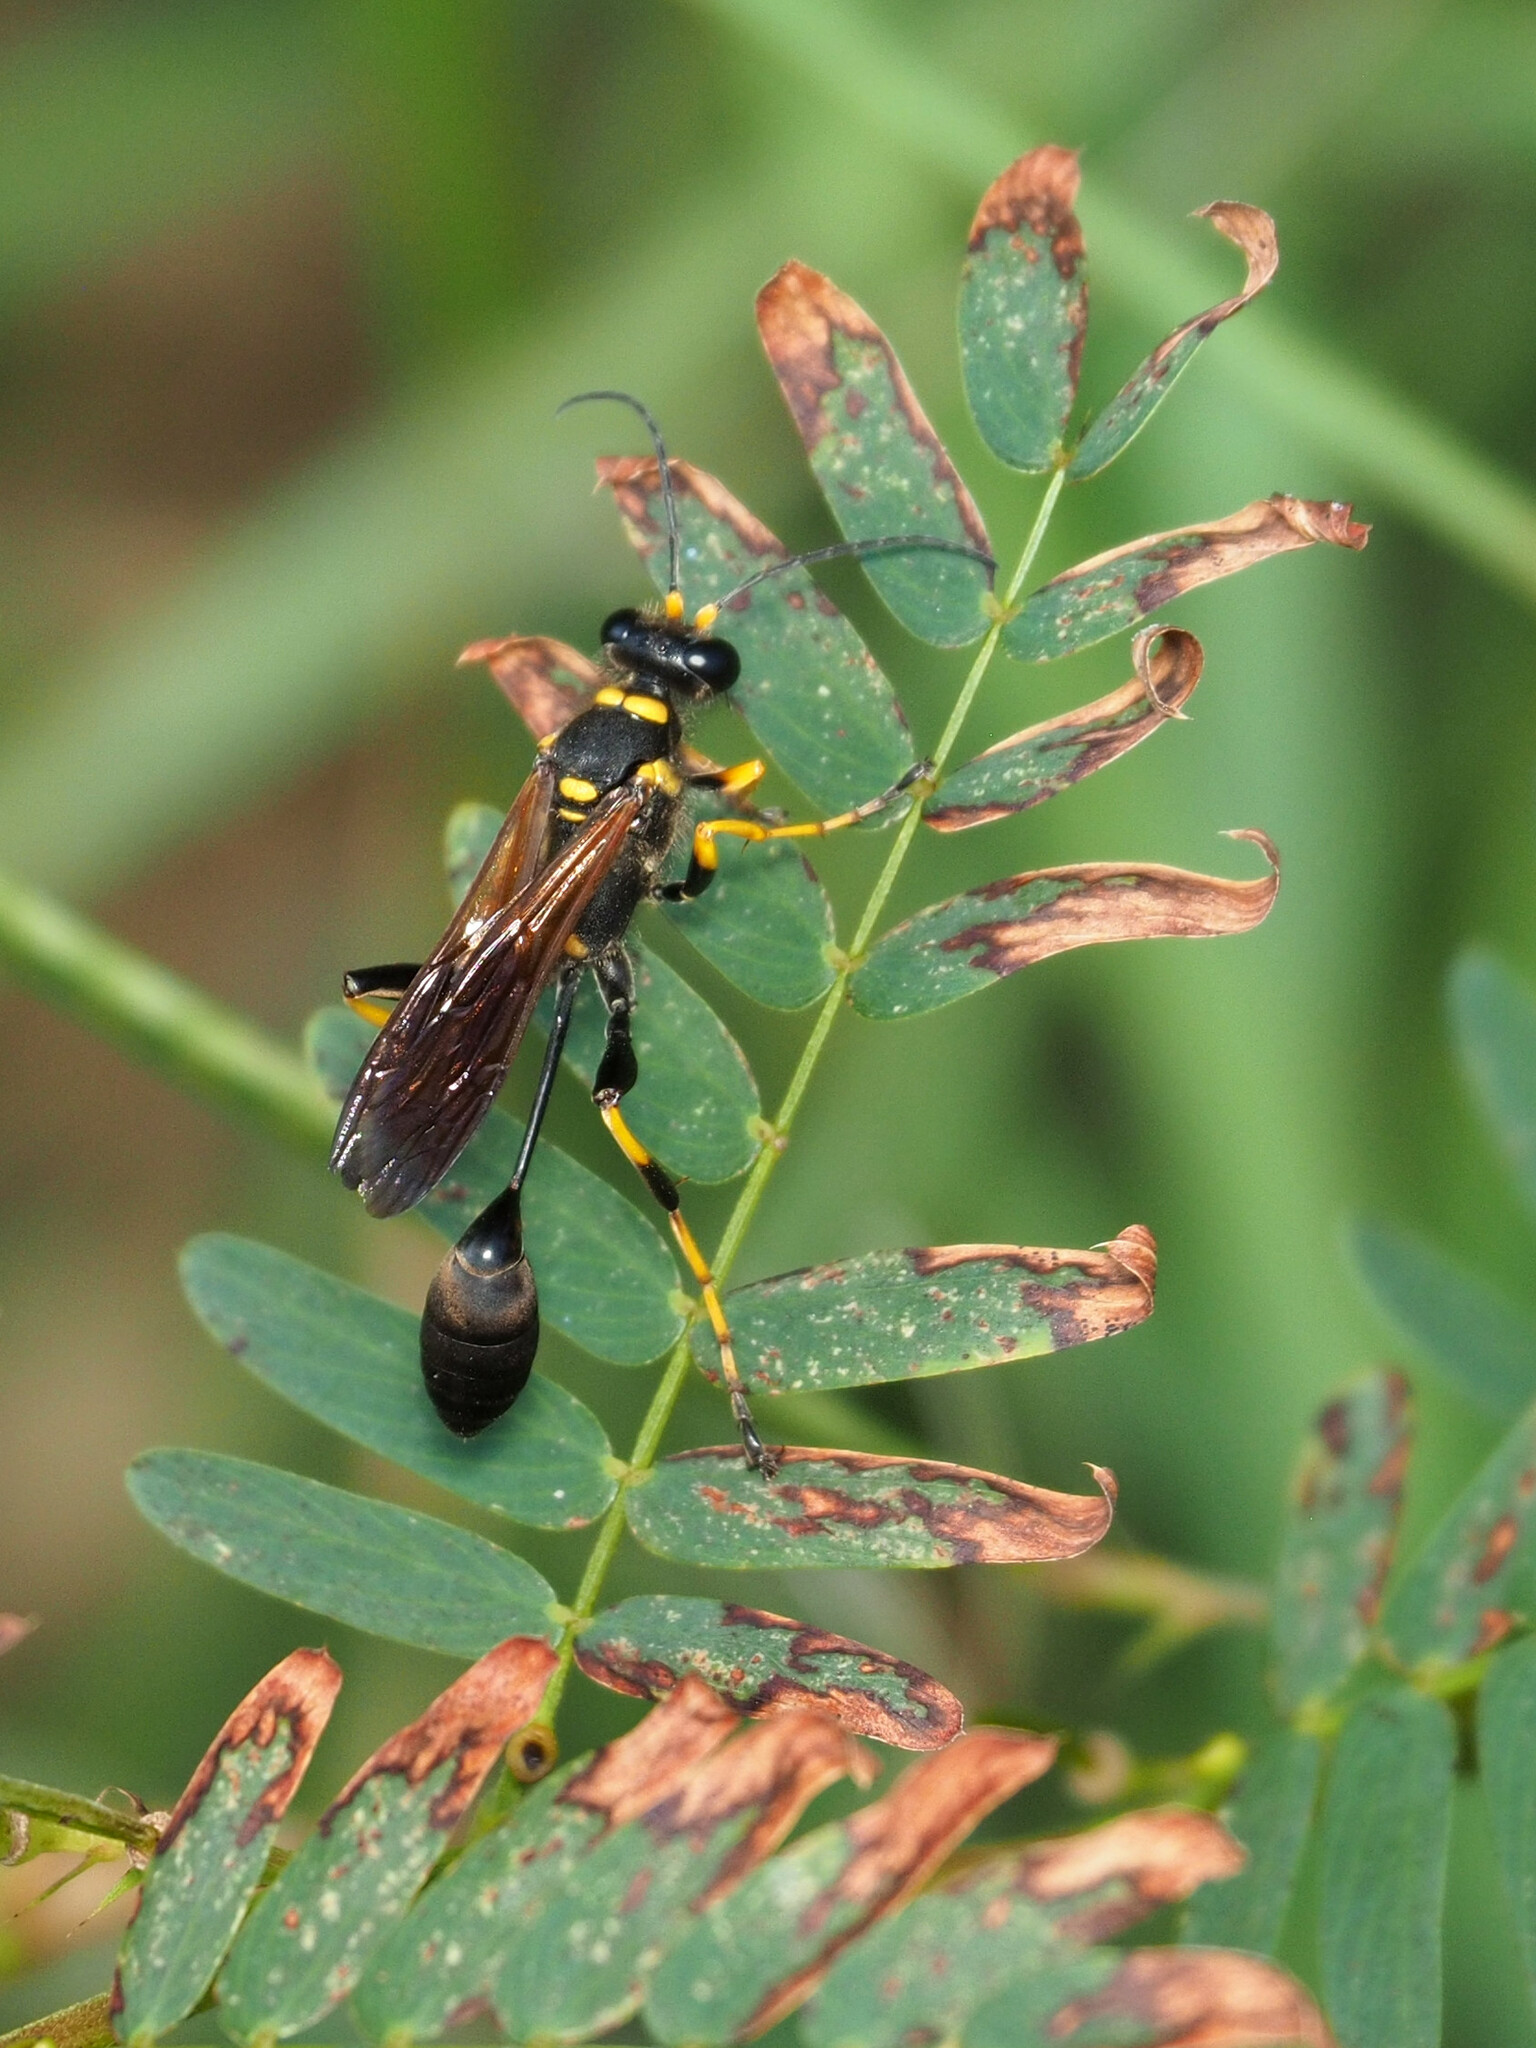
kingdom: Animalia
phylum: Arthropoda
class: Insecta
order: Hymenoptera
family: Sphecidae
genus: Sceliphron
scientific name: Sceliphron caementarium
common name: Mud dauber
